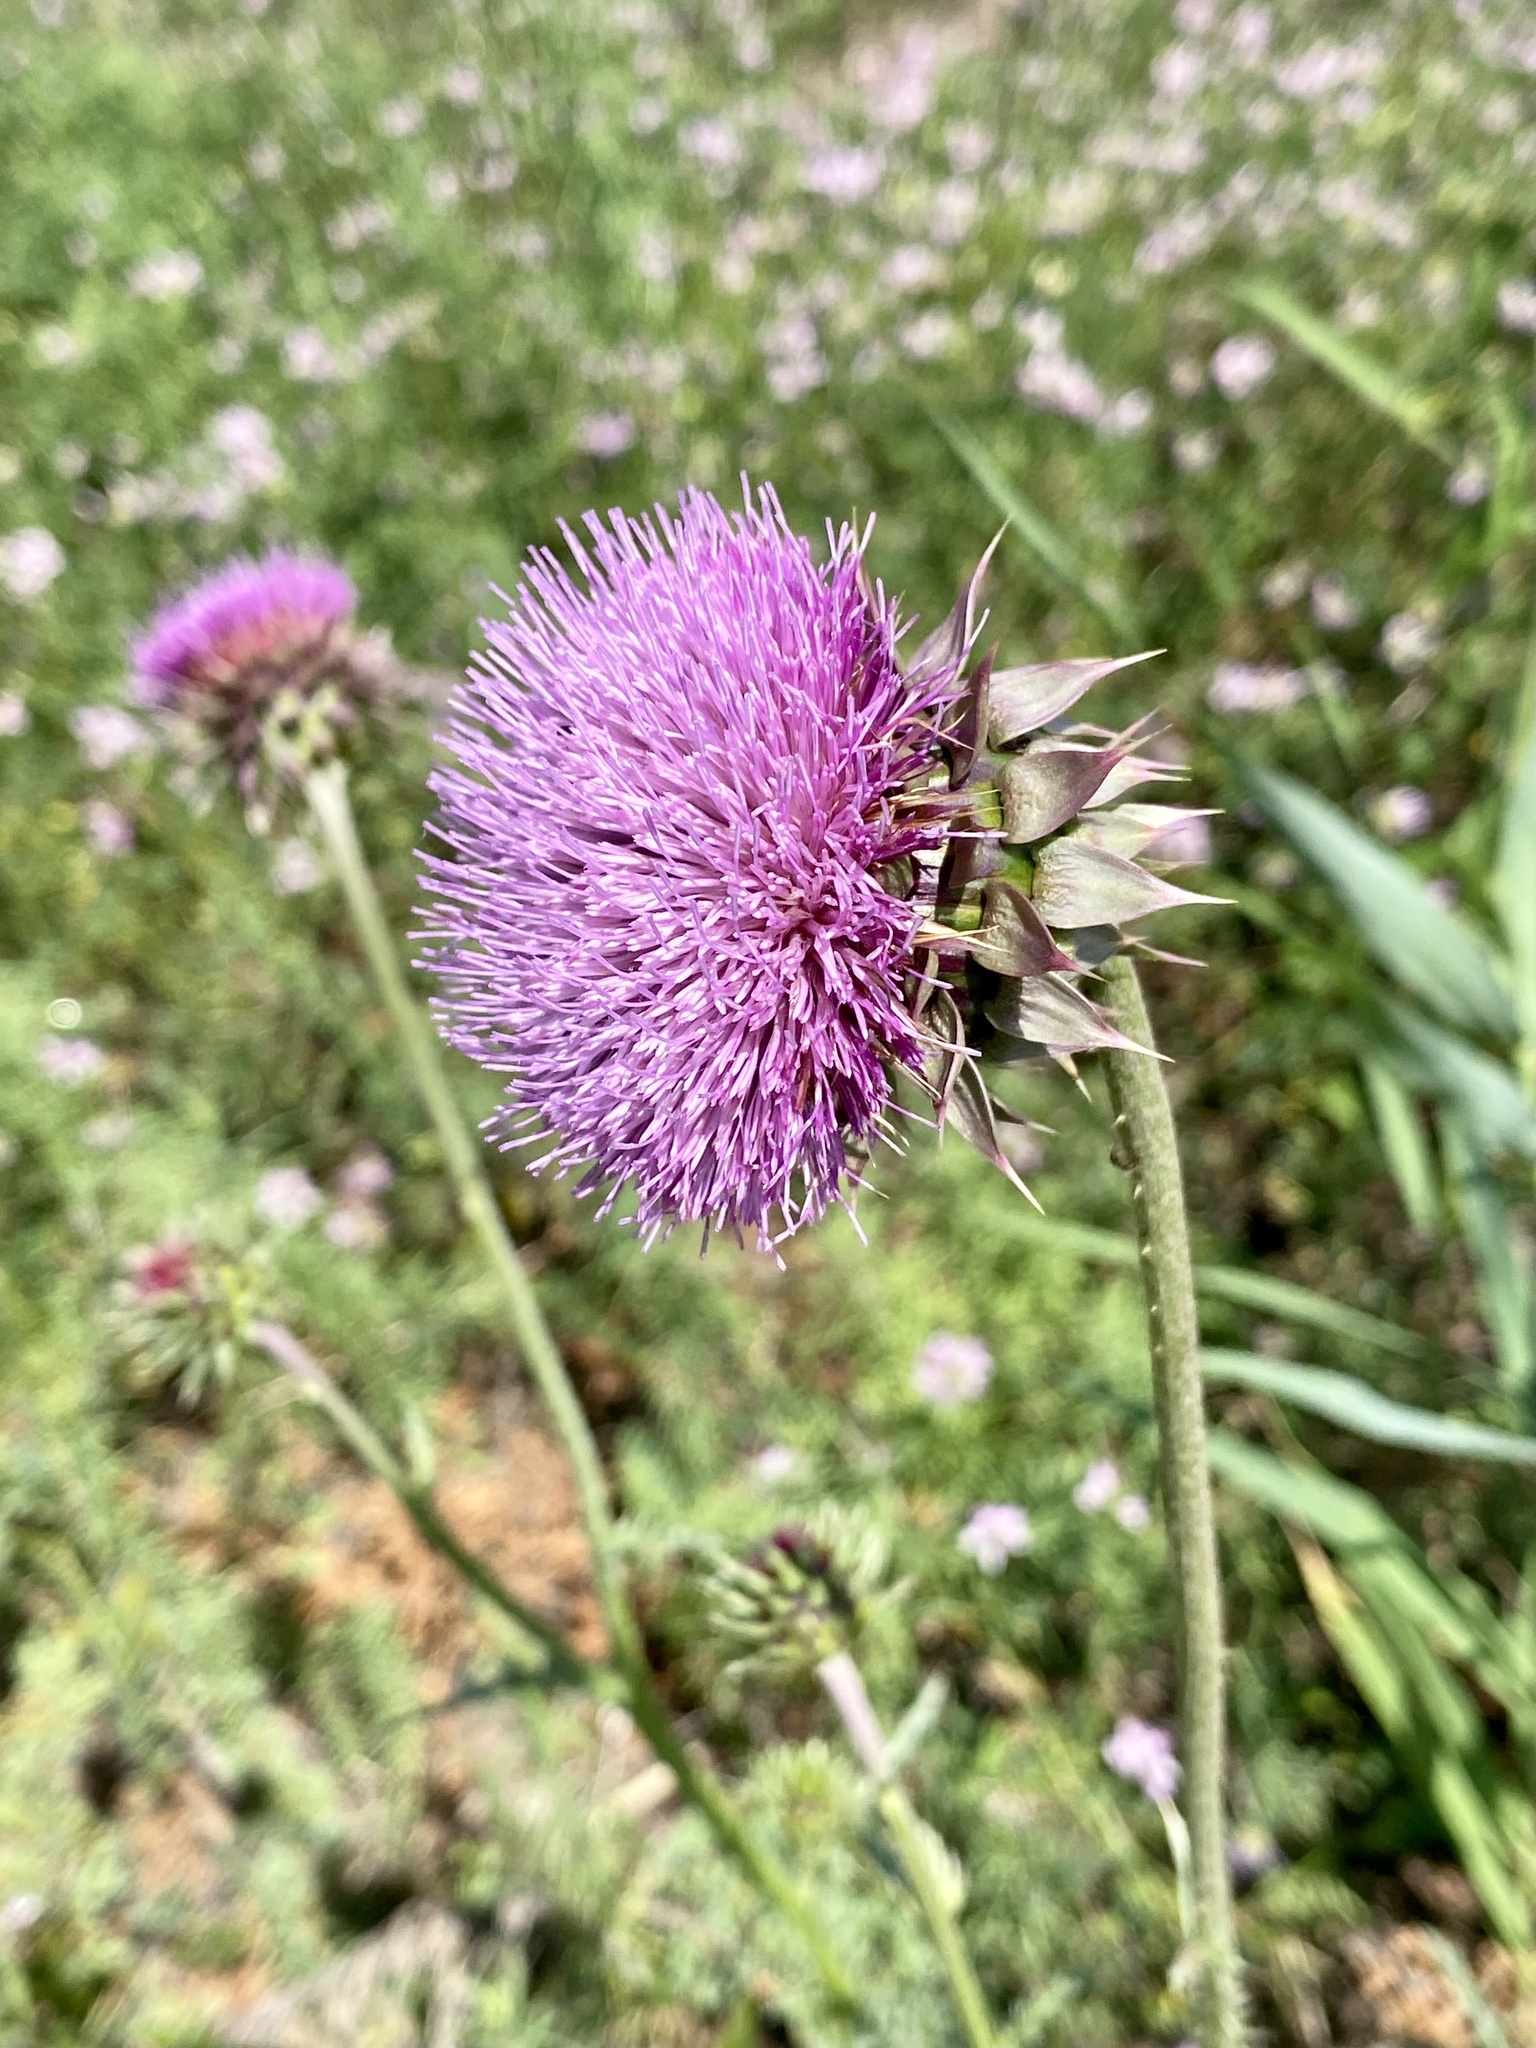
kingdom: Plantae
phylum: Tracheophyta
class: Magnoliopsida
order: Asterales
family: Asteraceae
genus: Carduus
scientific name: Carduus nutans
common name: Musk thistle
